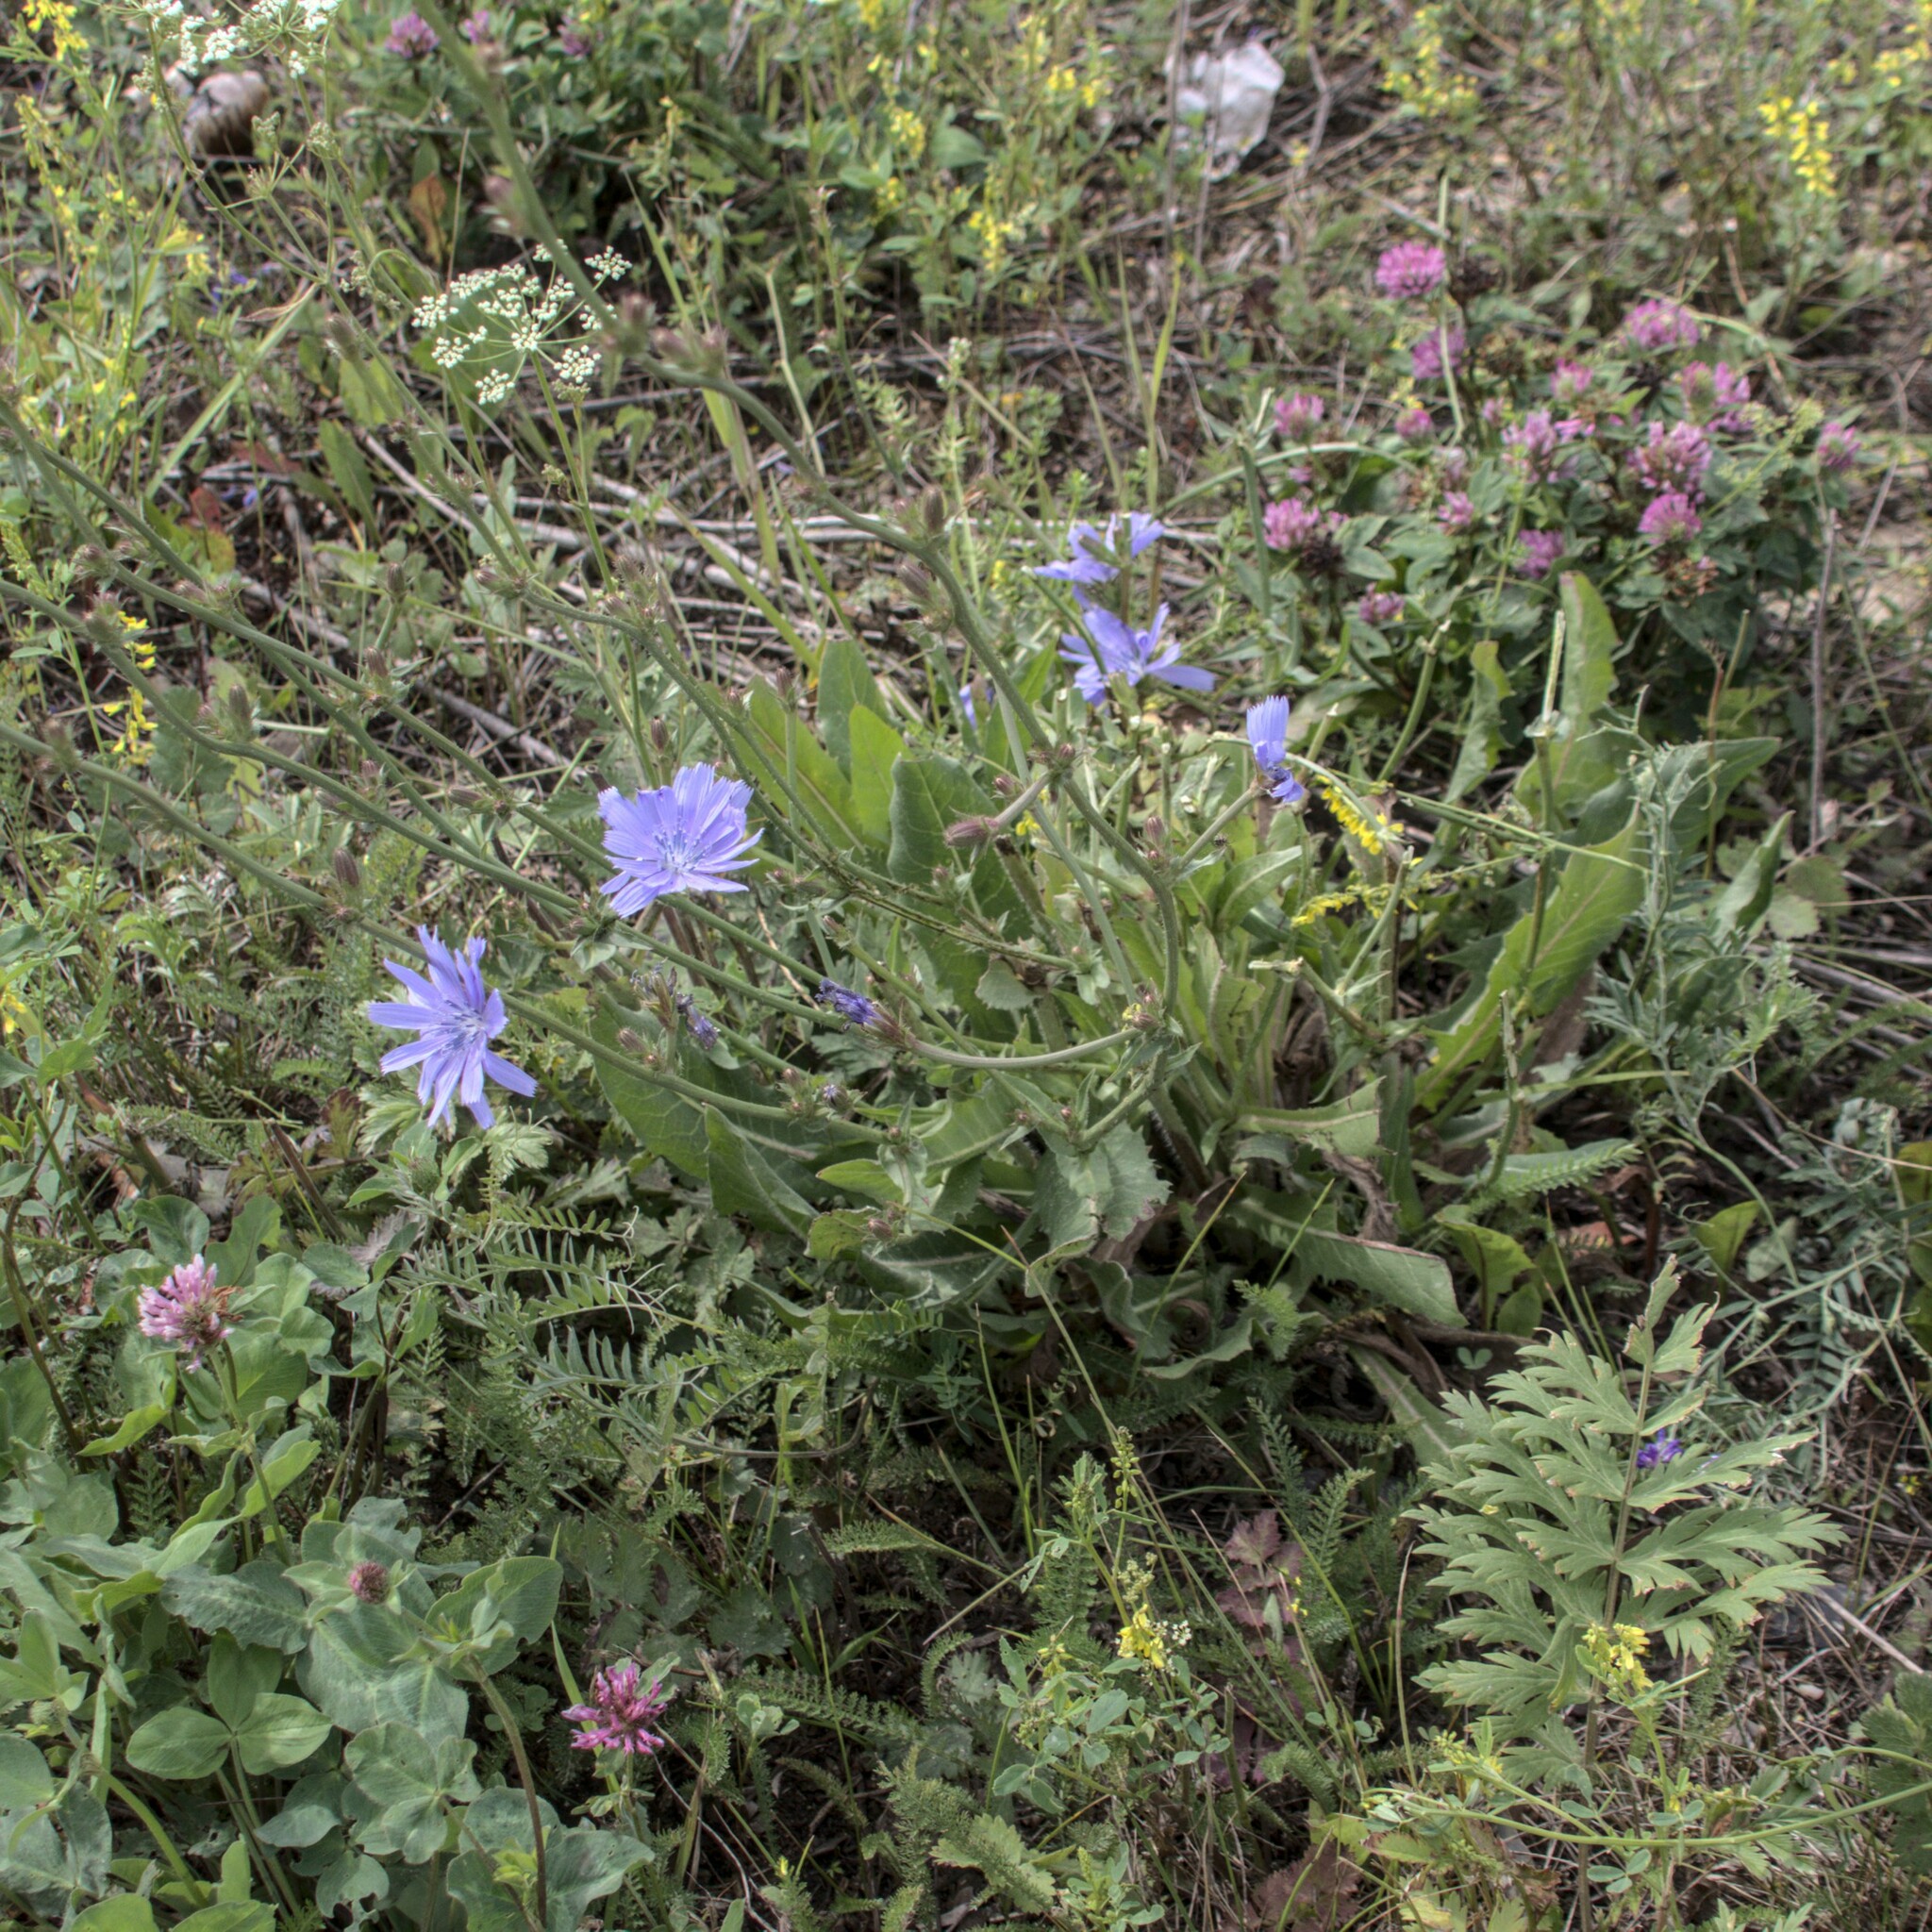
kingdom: Plantae
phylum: Tracheophyta
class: Magnoliopsida
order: Asterales
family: Asteraceae
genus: Cichorium
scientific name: Cichorium intybus
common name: Chicory
